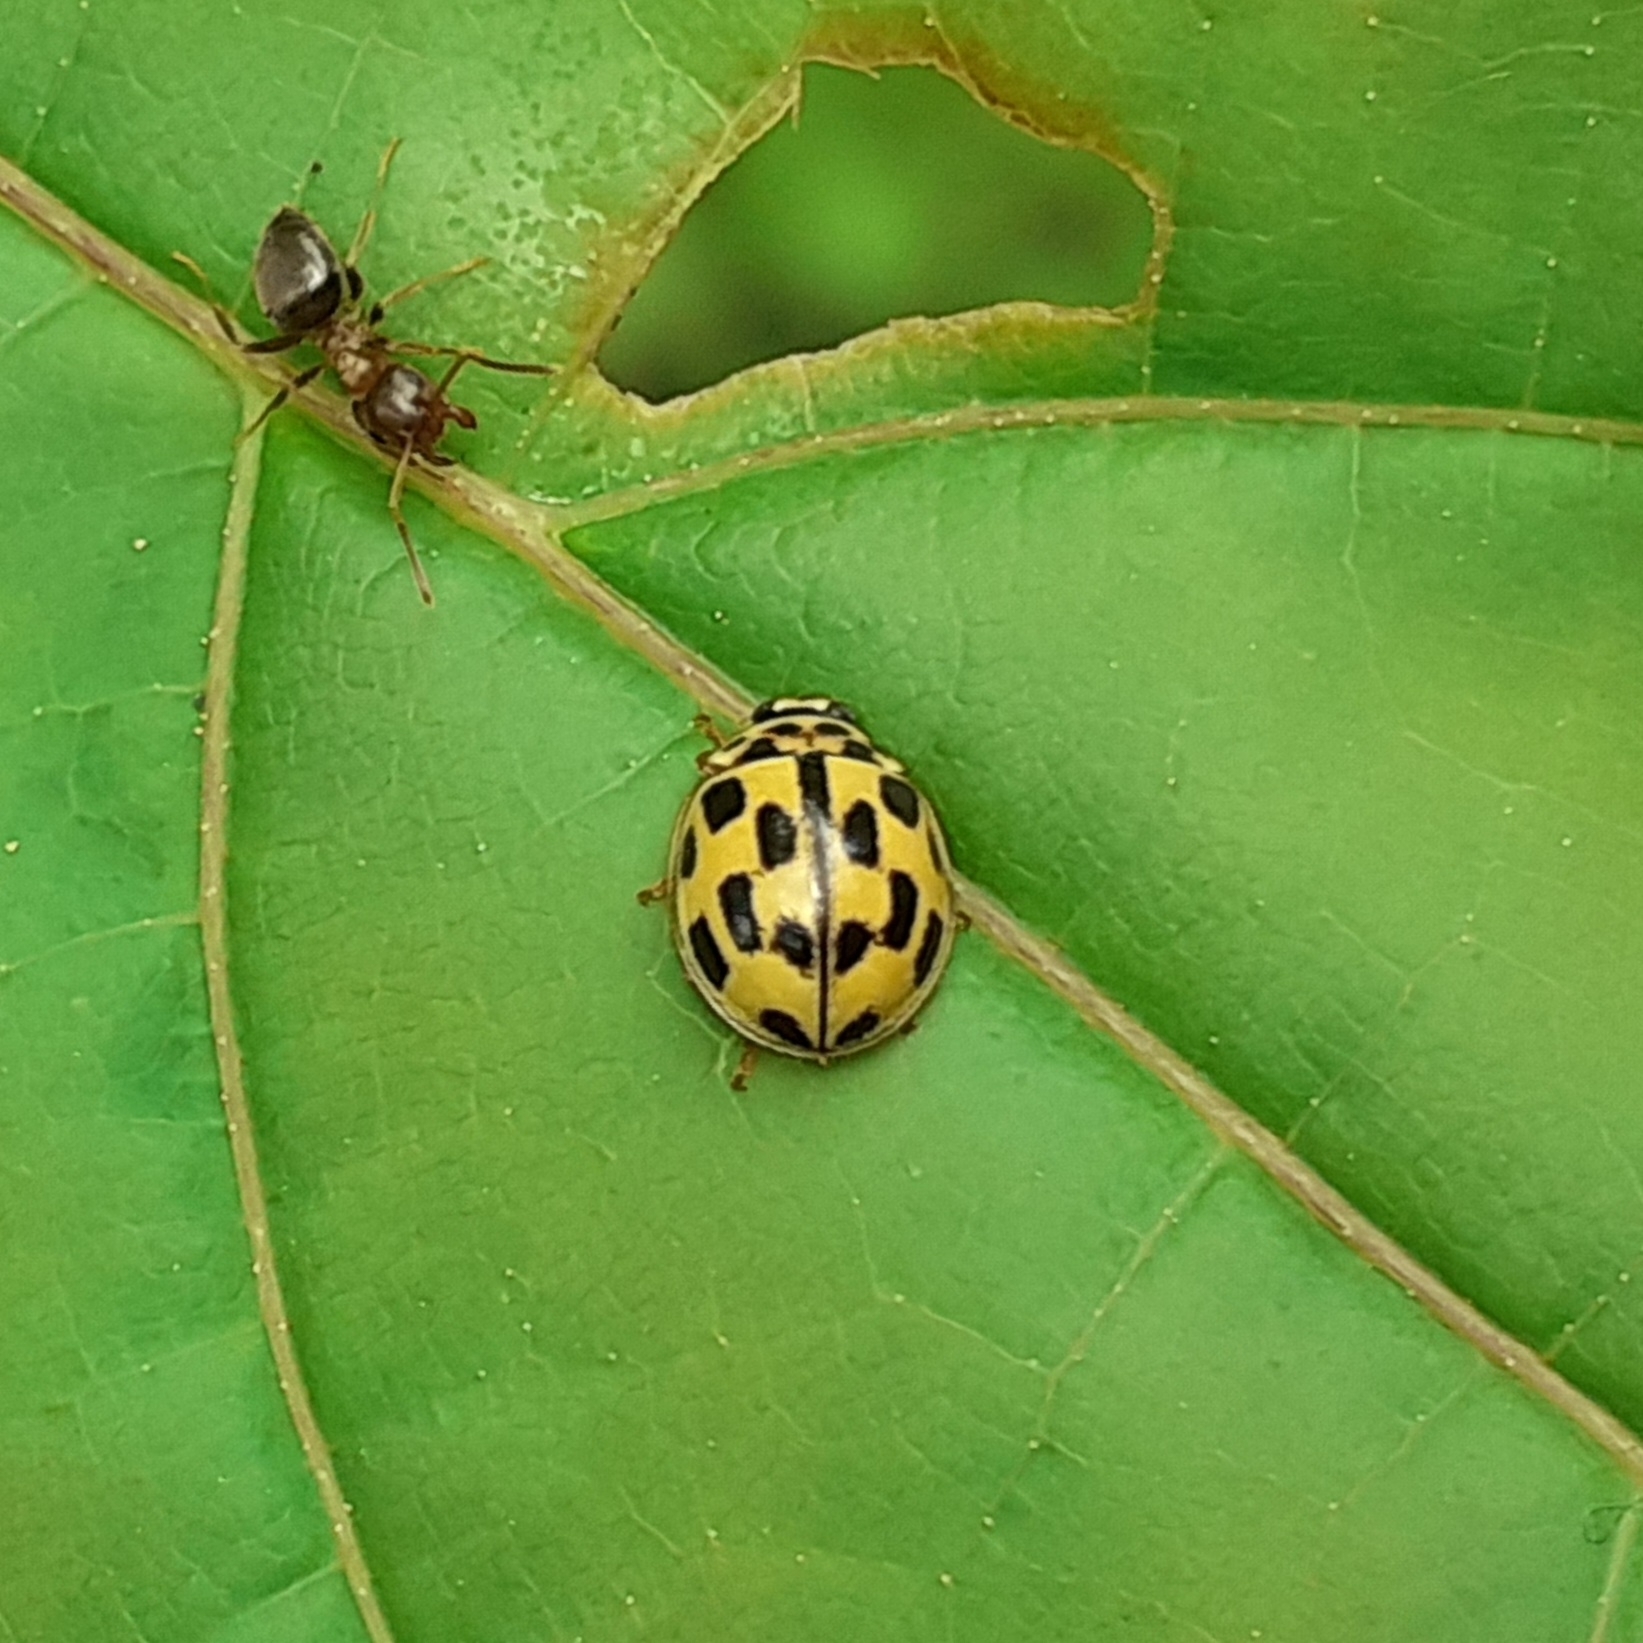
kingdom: Animalia
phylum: Arthropoda
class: Insecta
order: Coleoptera
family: Coccinellidae
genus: Propylaea
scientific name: Propylaea quatuordecimpunctata
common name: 14-spotted ladybird beetle
